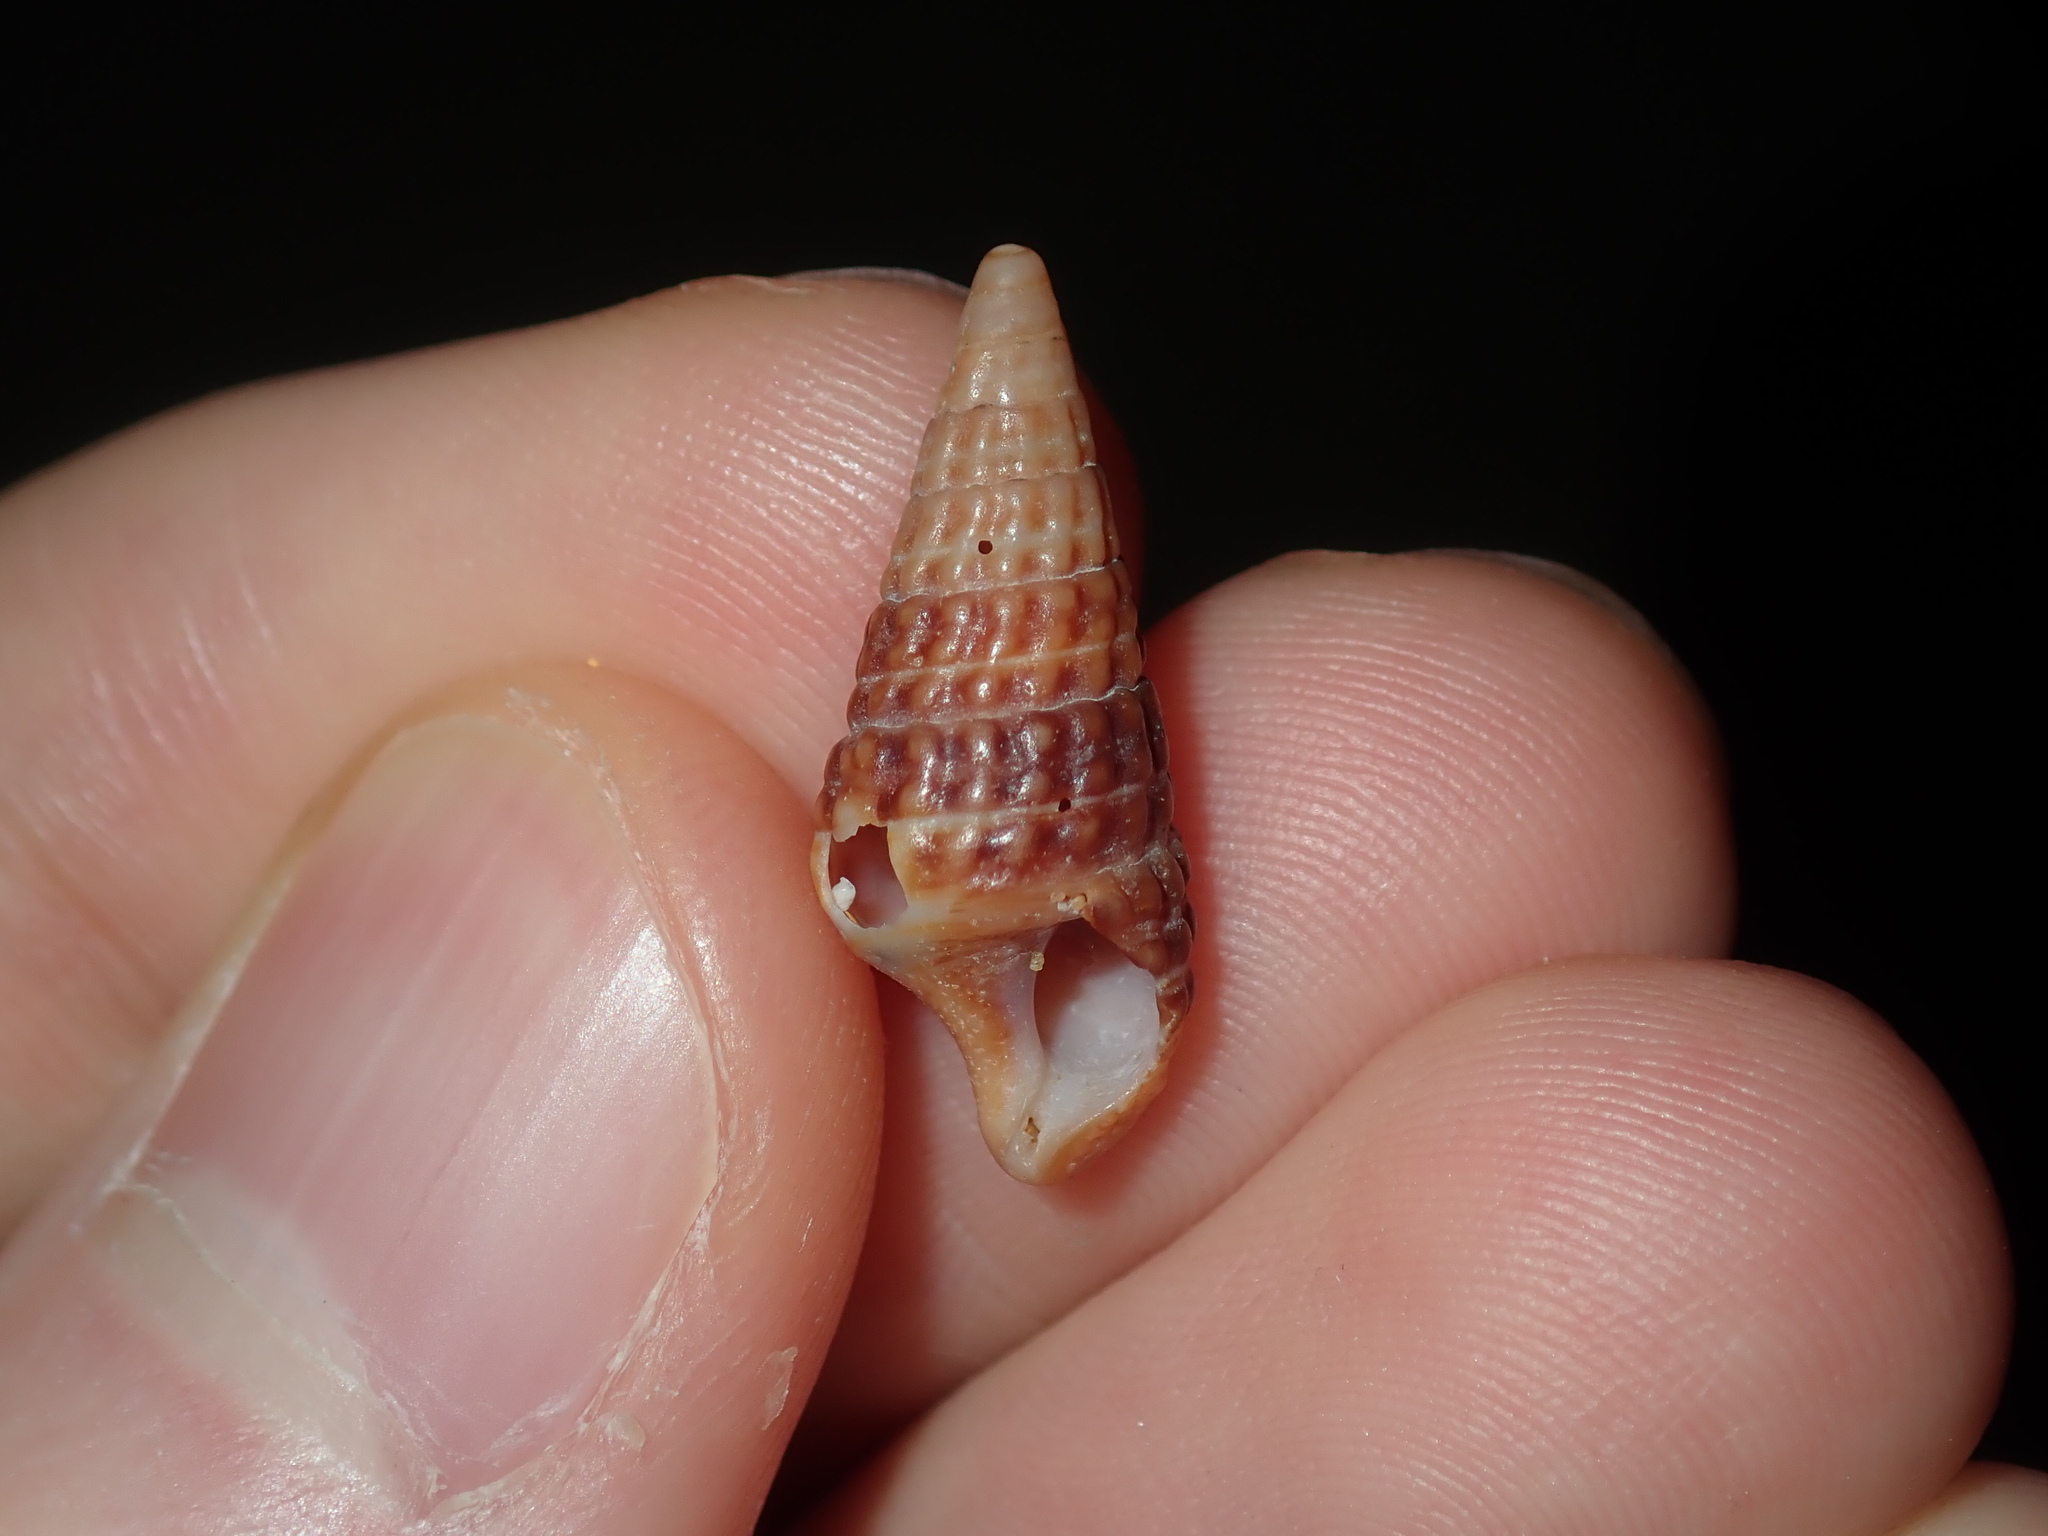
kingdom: Animalia
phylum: Mollusca
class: Gastropoda
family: Cerithiidae
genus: Cerithium
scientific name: Cerithium coralium
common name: Coral cerith
